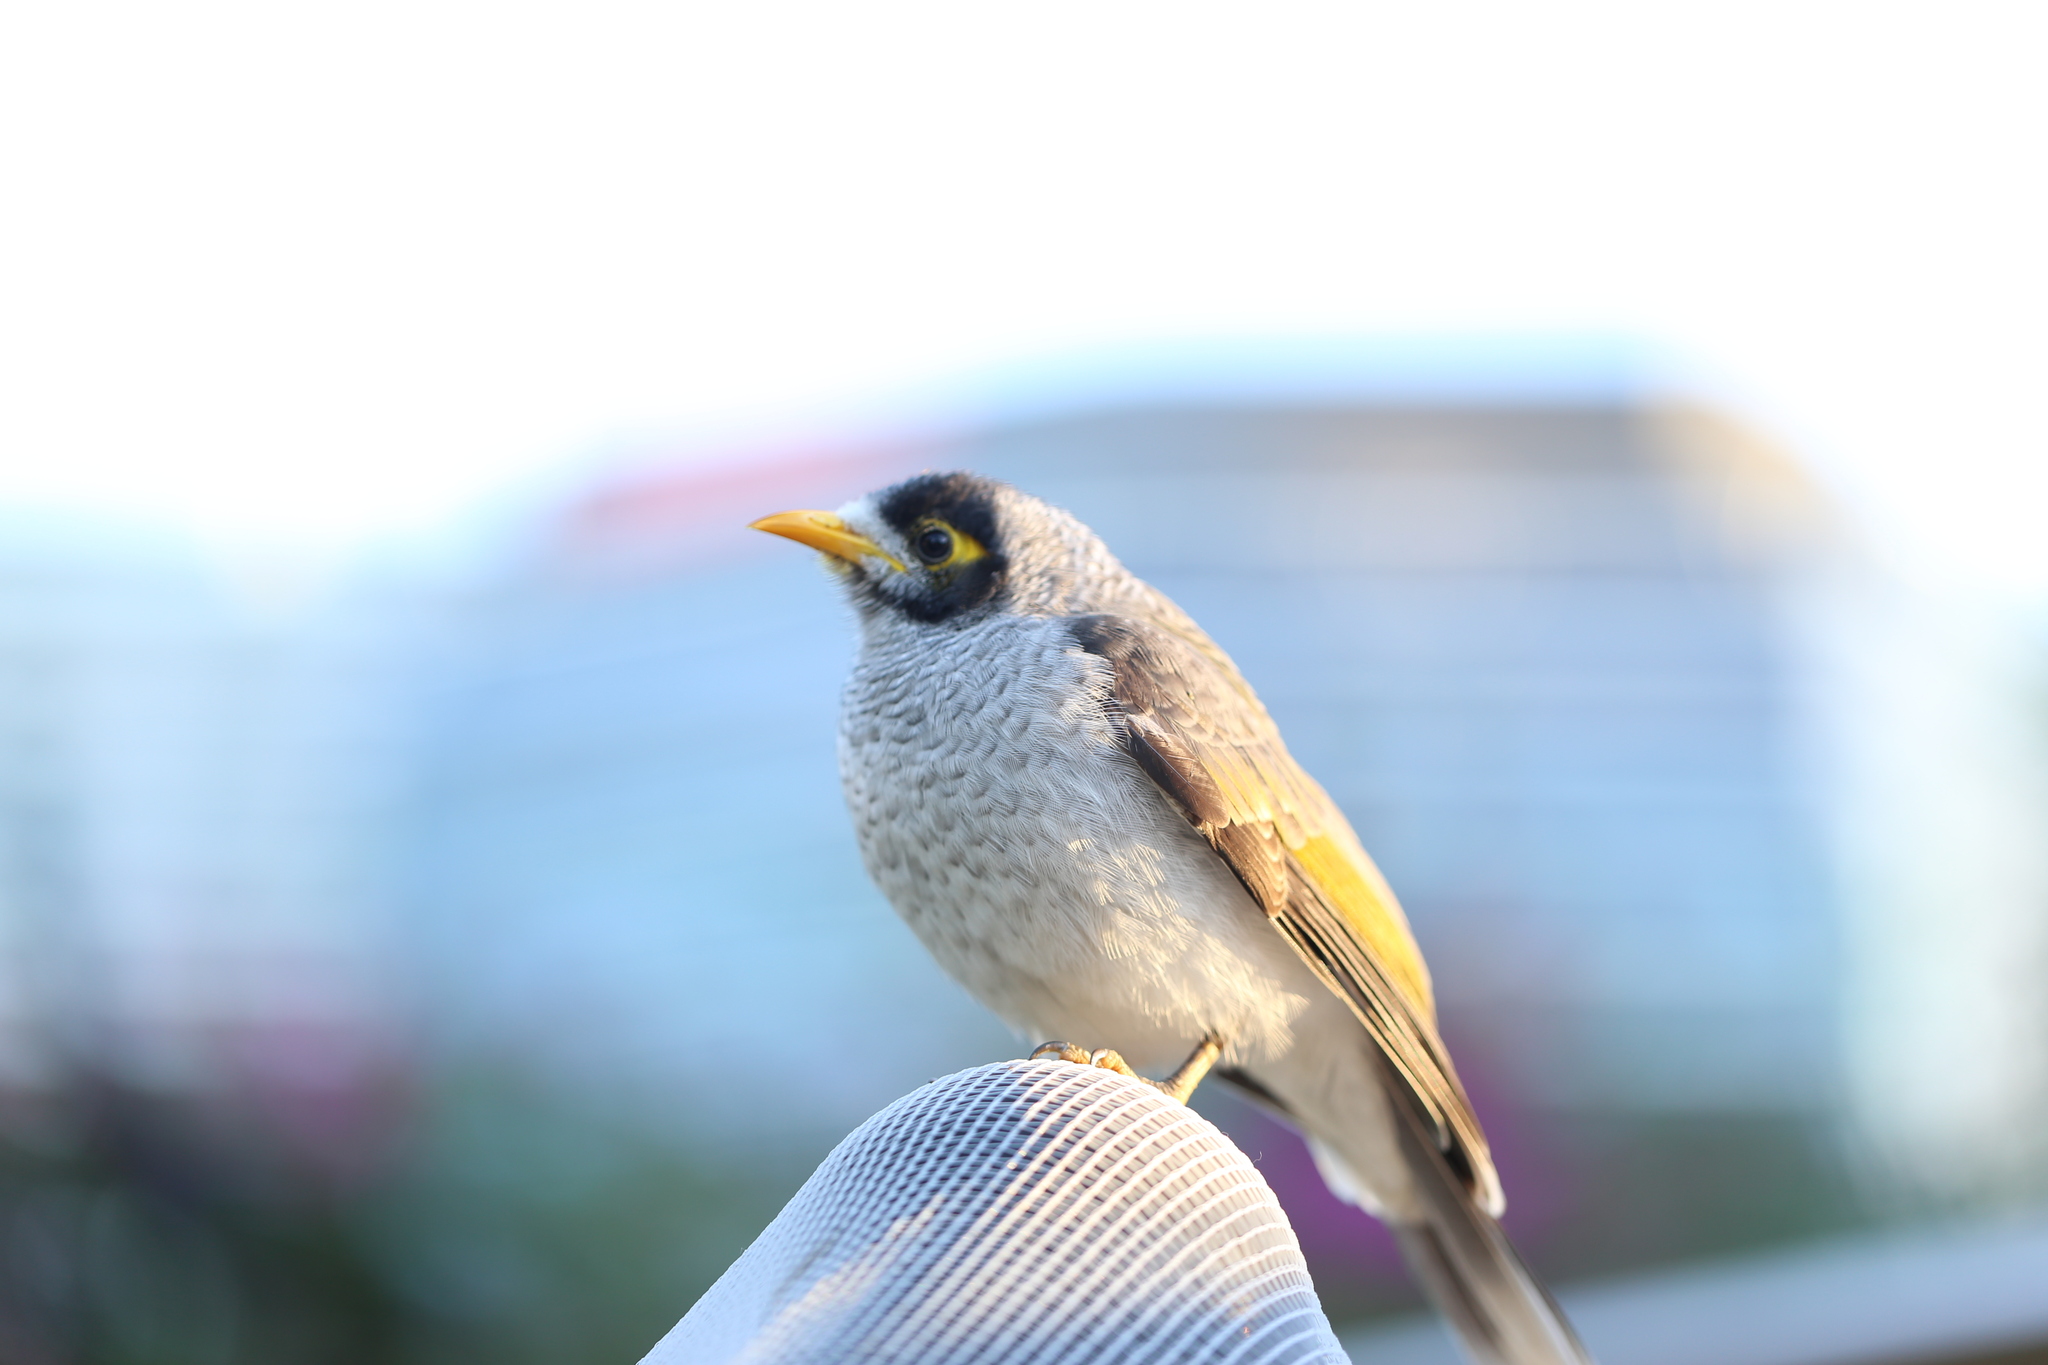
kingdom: Animalia
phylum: Chordata
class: Aves
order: Passeriformes
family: Meliphagidae
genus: Manorina
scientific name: Manorina melanocephala
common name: Noisy miner
